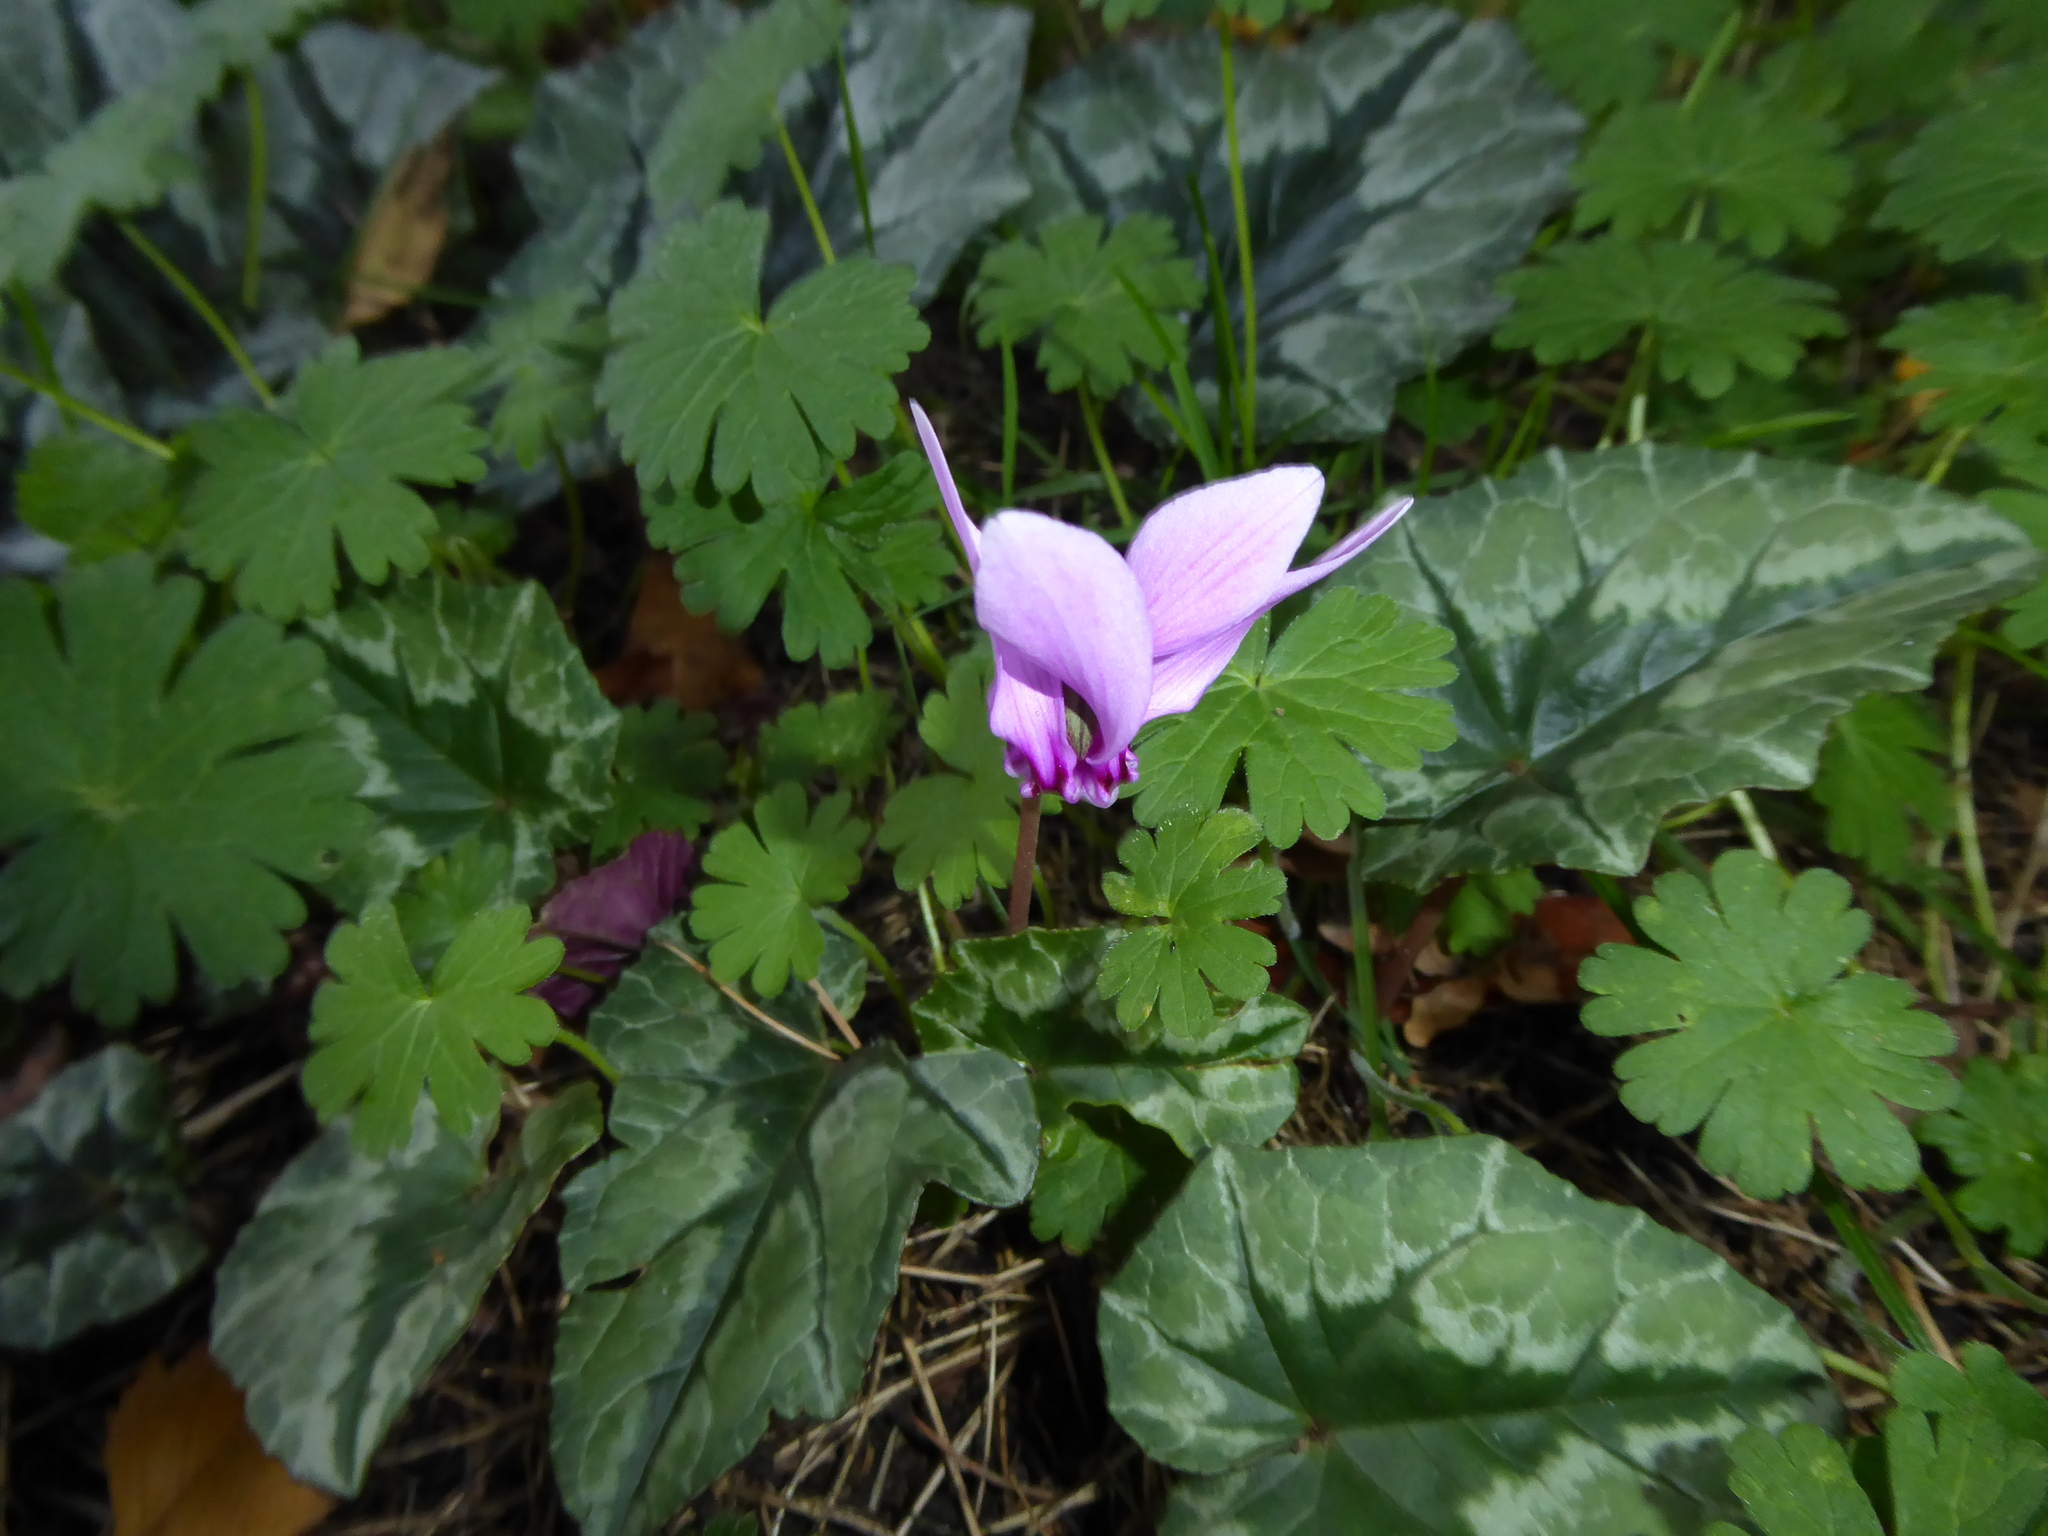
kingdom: Plantae
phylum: Tracheophyta
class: Magnoliopsida
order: Ericales
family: Primulaceae
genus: Cyclamen
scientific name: Cyclamen hederifolium
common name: Sowbread
